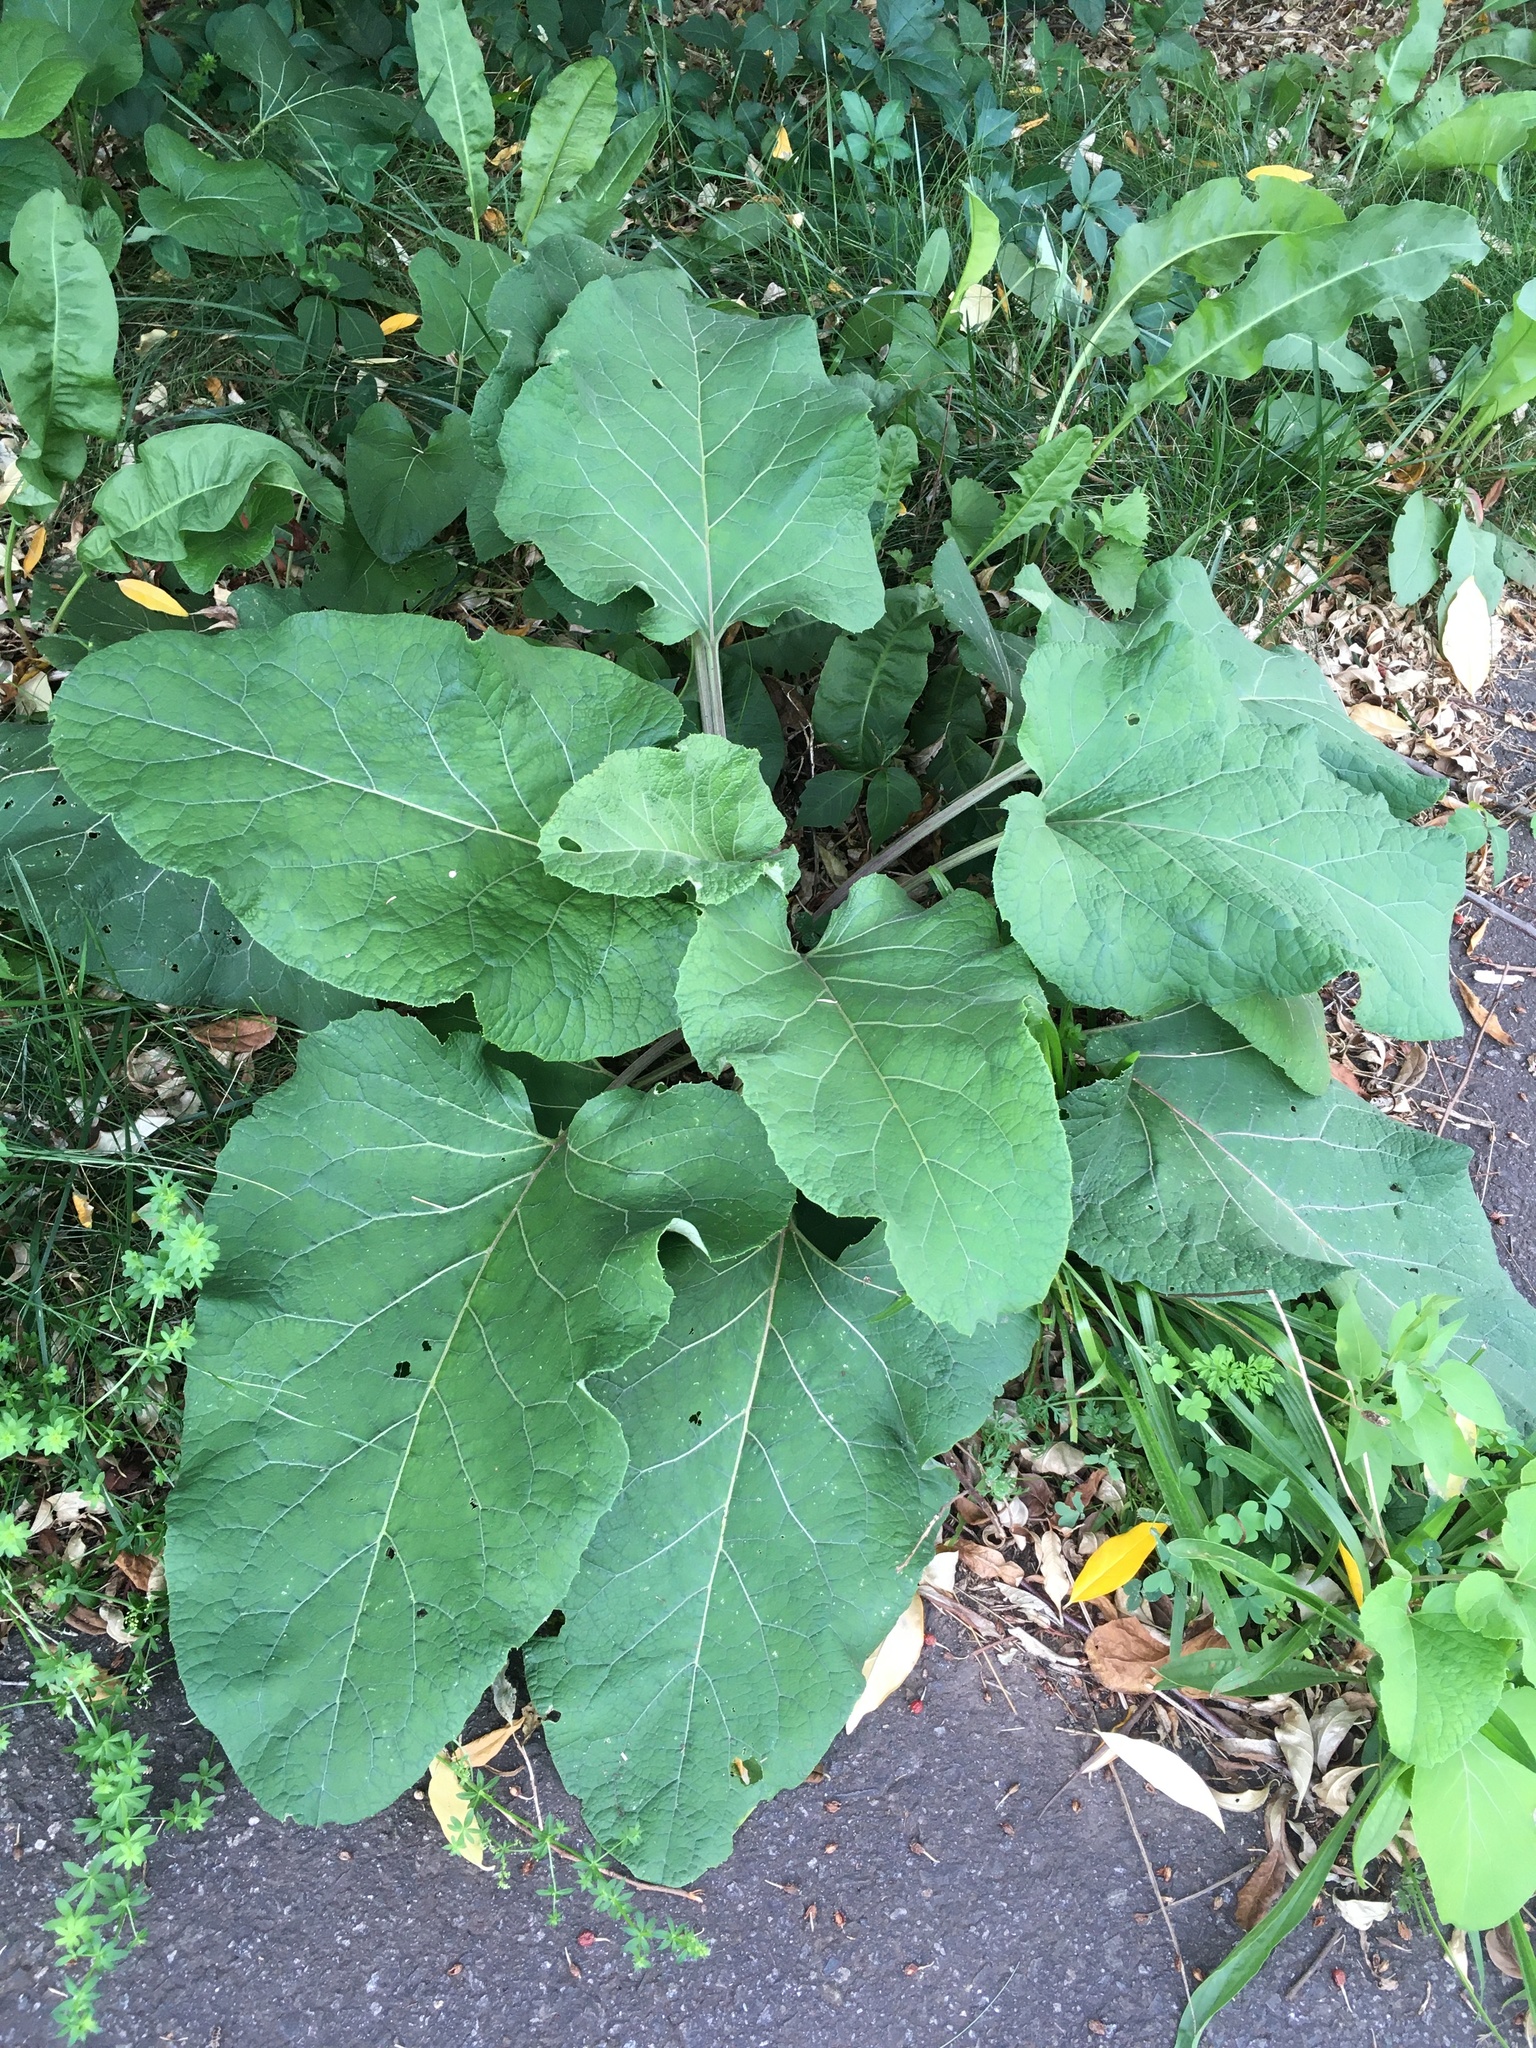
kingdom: Plantae
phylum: Tracheophyta
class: Magnoliopsida
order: Asterales
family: Asteraceae
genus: Arctium
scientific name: Arctium
